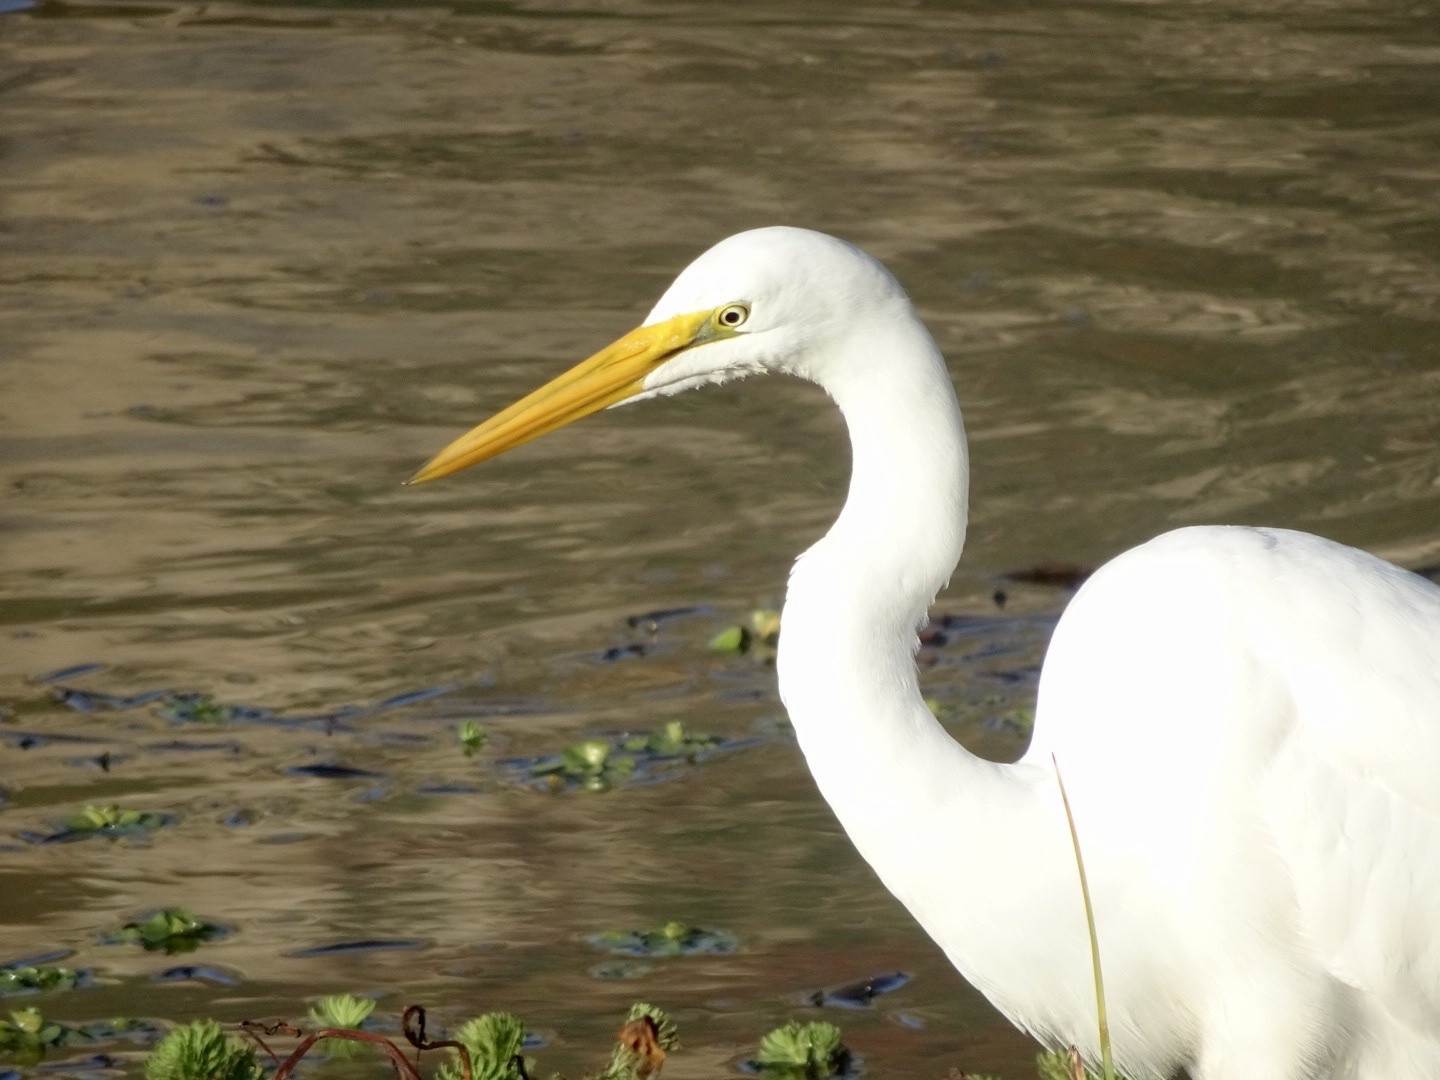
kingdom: Animalia
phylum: Chordata
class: Aves
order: Pelecaniformes
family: Ardeidae
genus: Ardea
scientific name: Ardea alba
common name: Great egret
